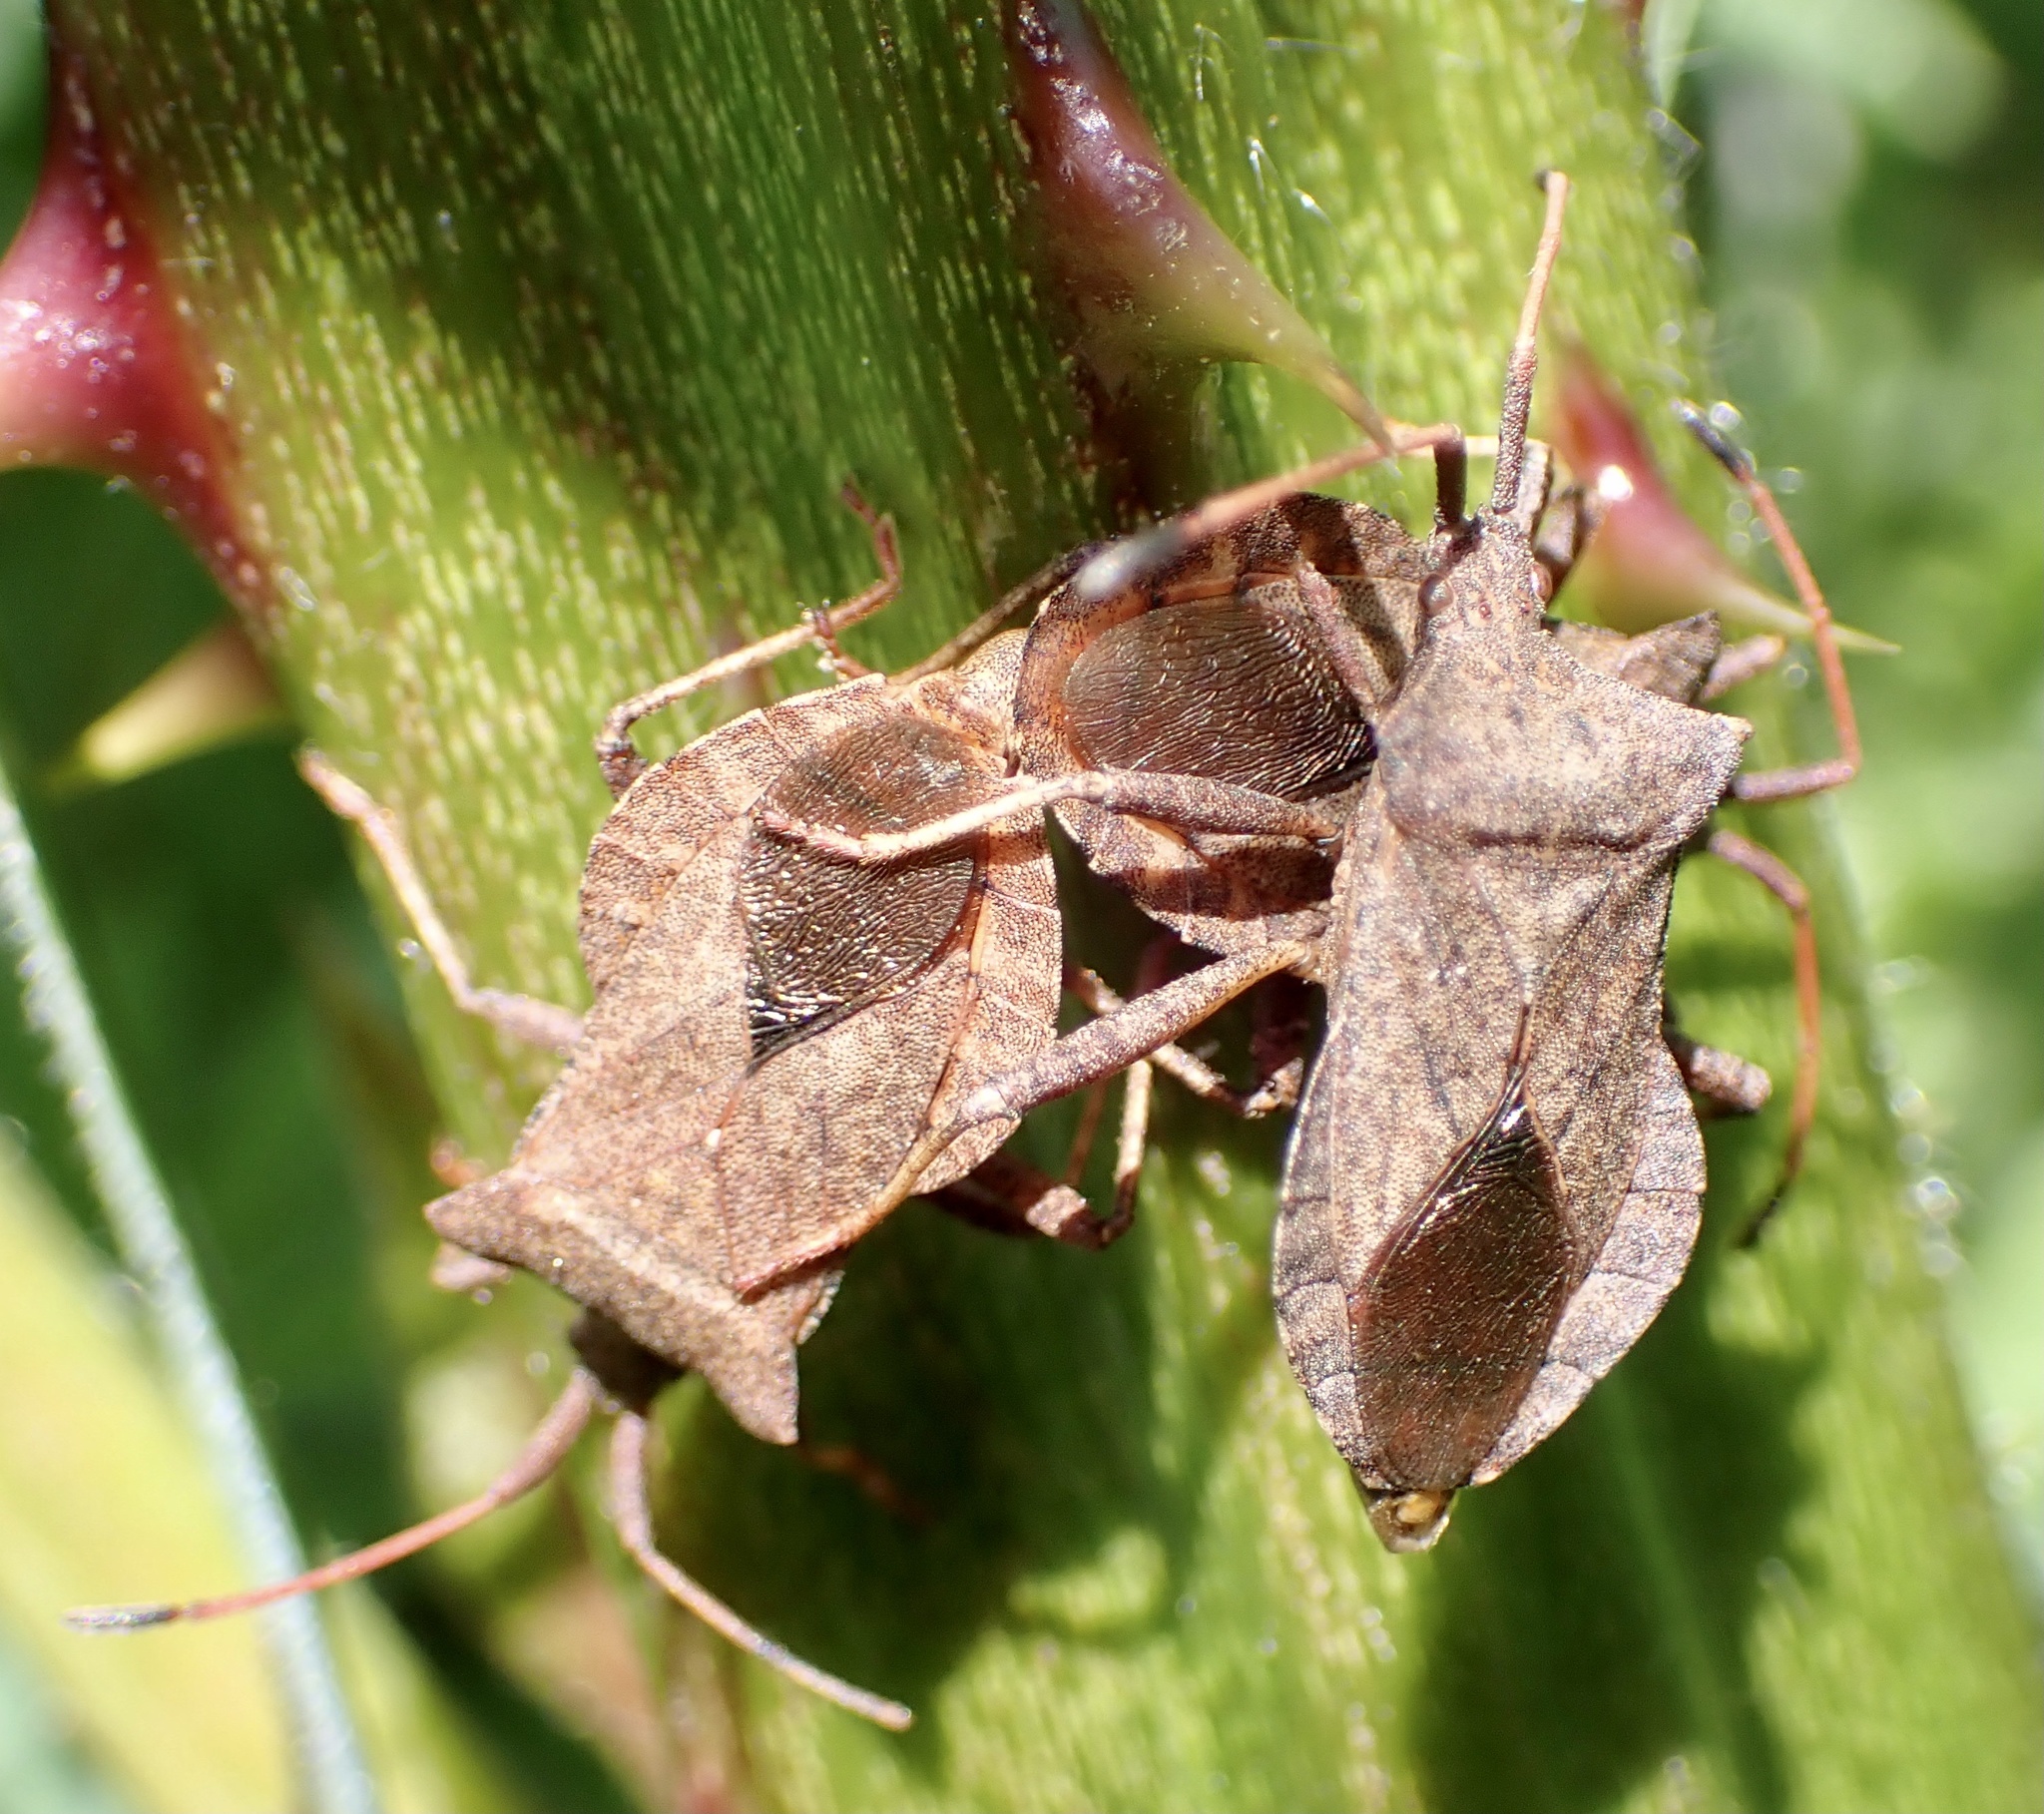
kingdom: Animalia
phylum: Arthropoda
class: Insecta
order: Hemiptera
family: Coreidae
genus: Coreus
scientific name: Coreus marginatus
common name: Dock bug
